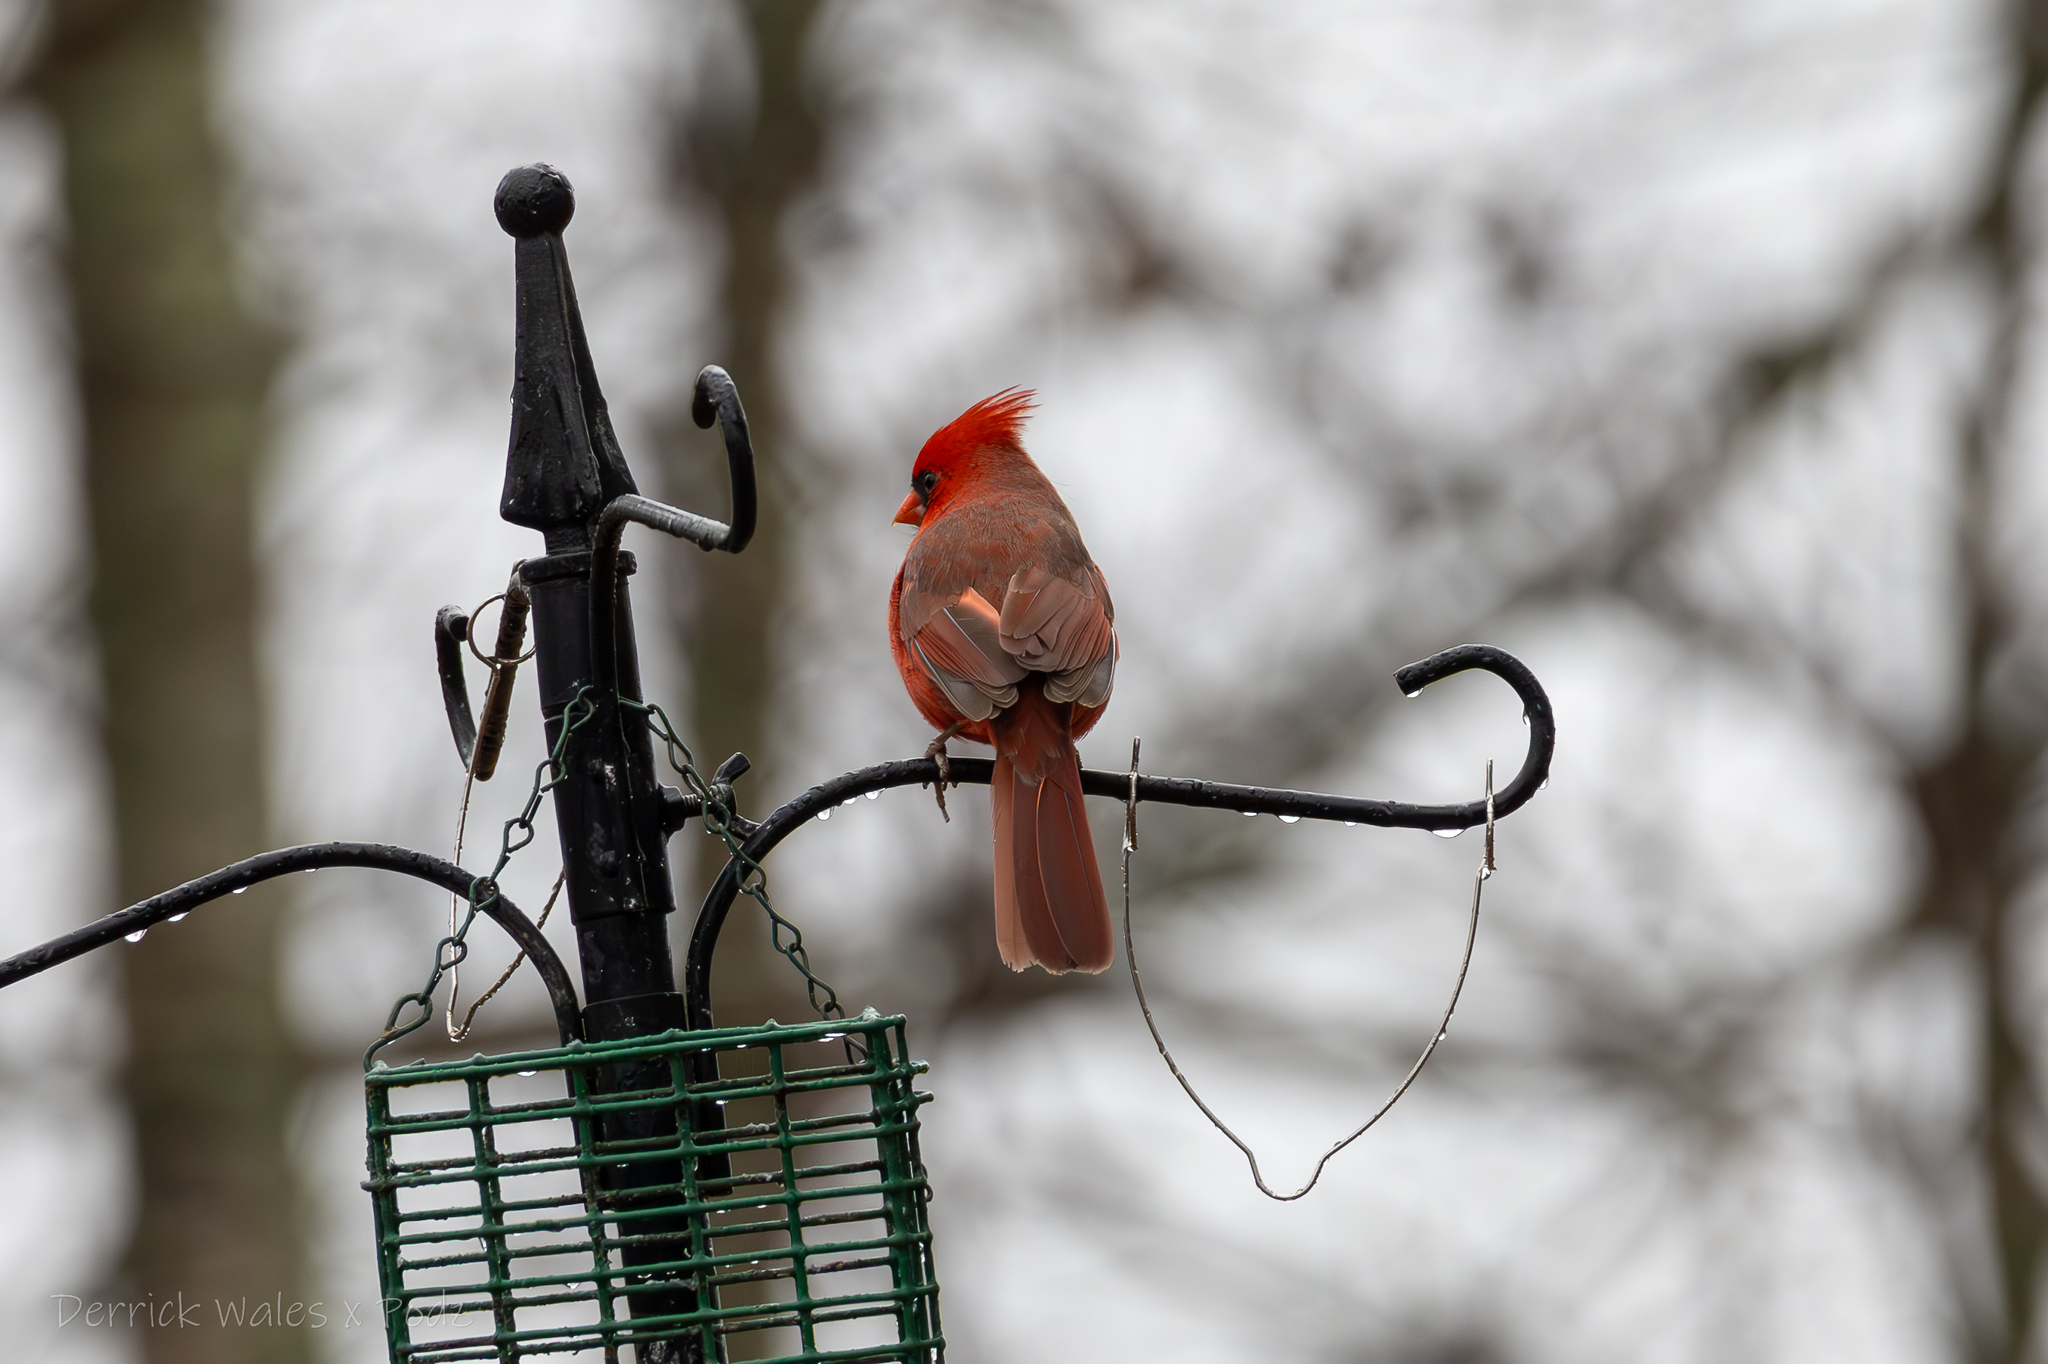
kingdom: Animalia
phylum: Chordata
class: Aves
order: Passeriformes
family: Cardinalidae
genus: Cardinalis
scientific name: Cardinalis cardinalis
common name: Northern cardinal
